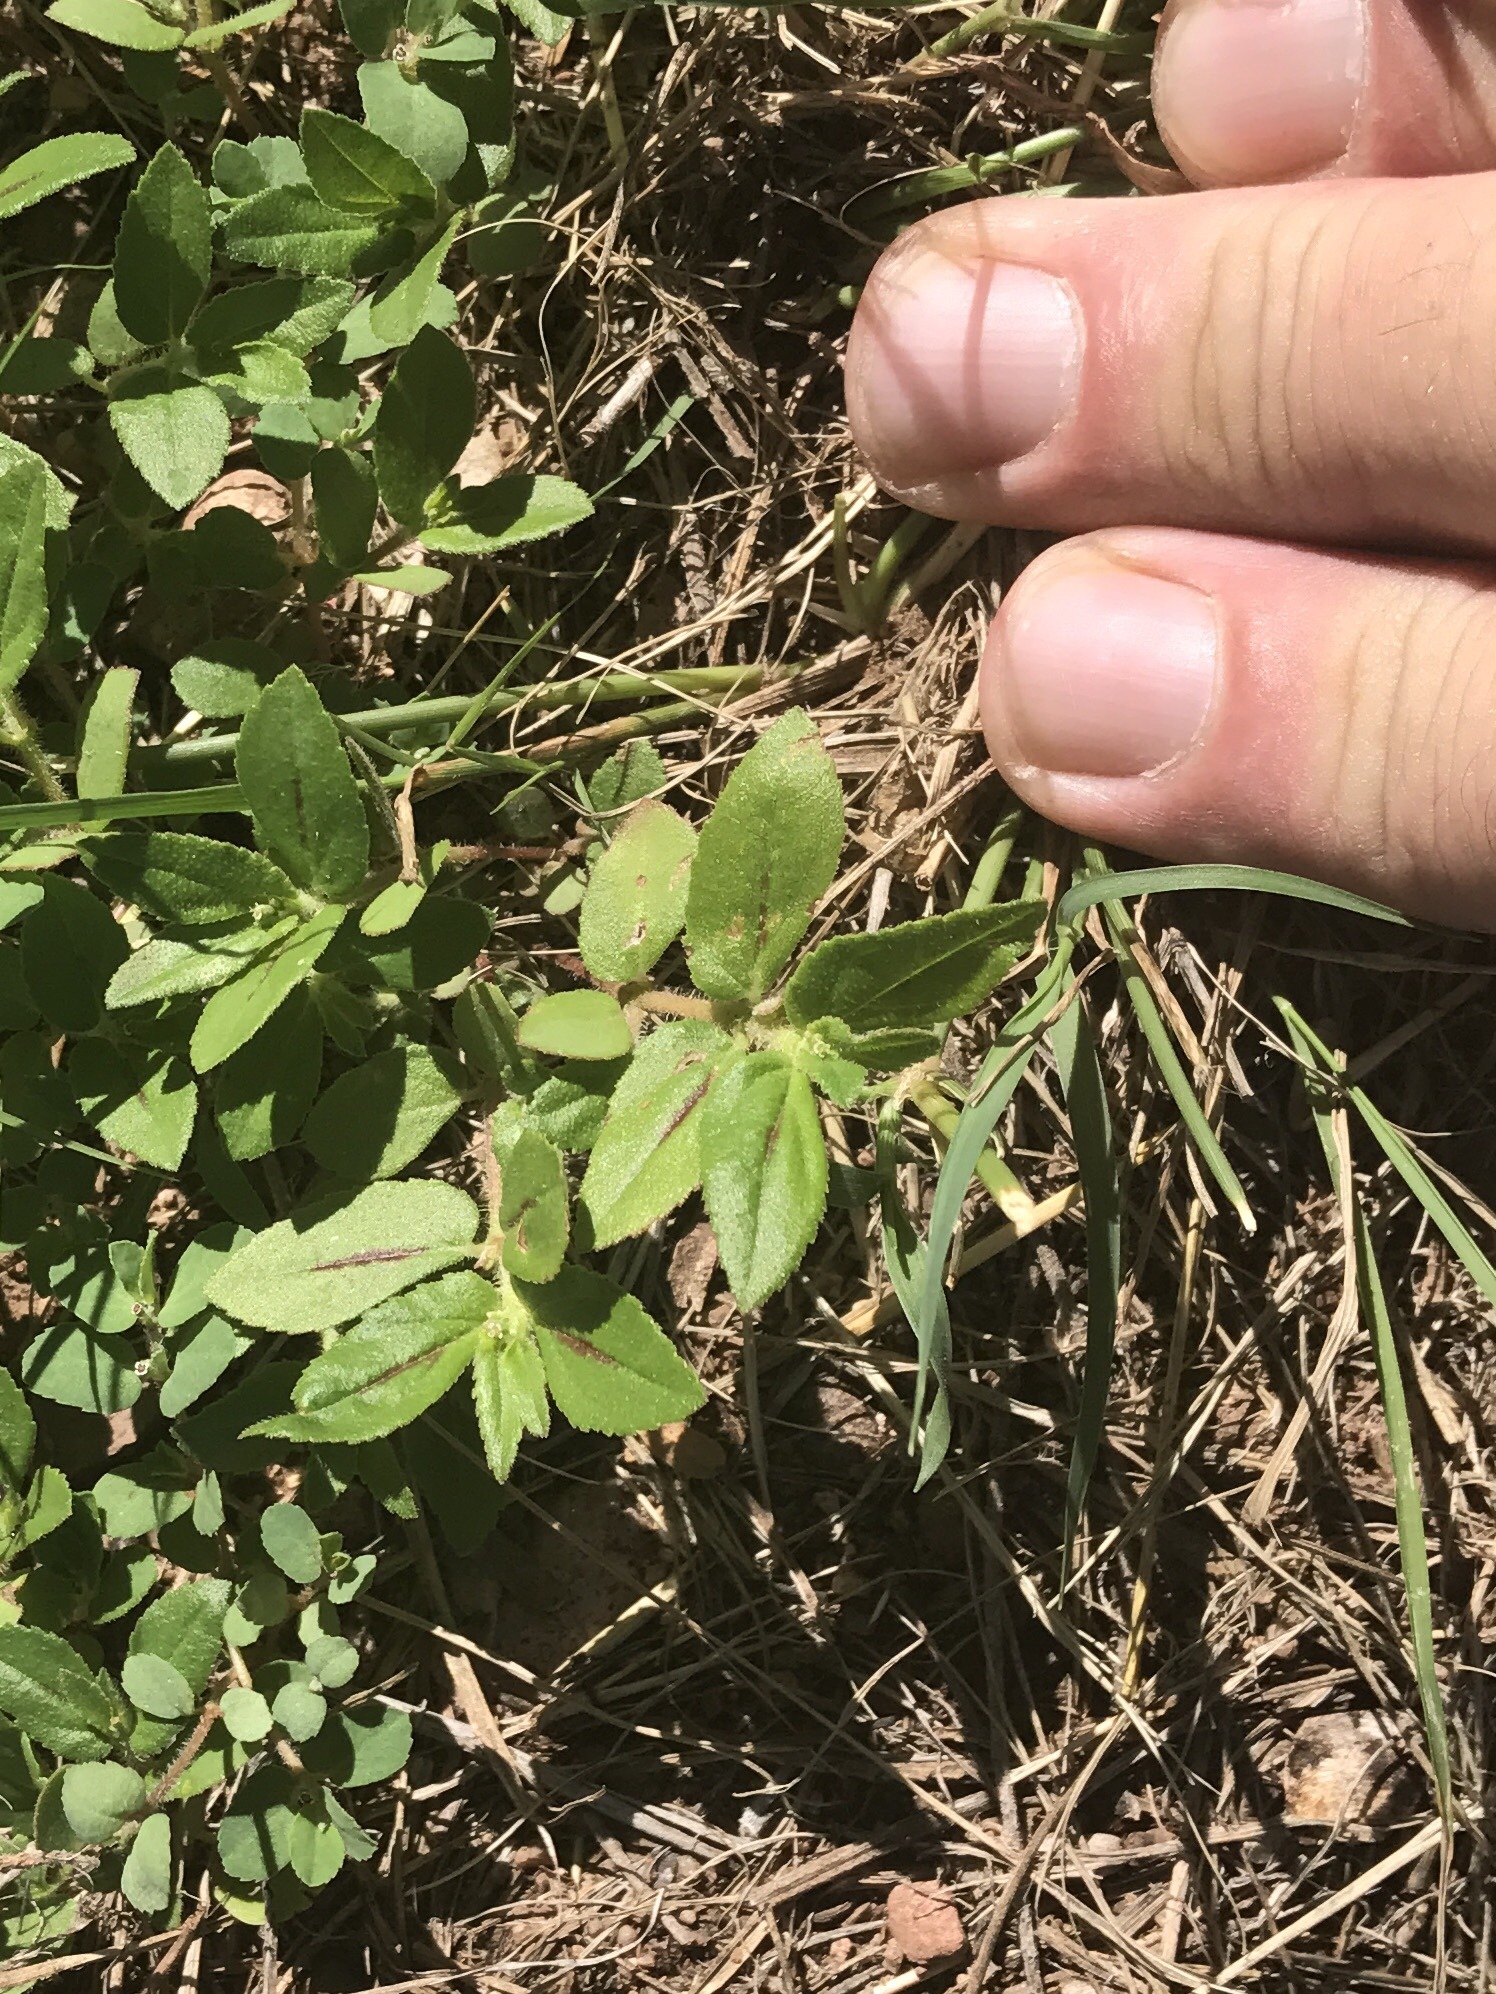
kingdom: Plantae
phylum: Tracheophyta
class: Magnoliopsida
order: Malpighiales
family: Euphorbiaceae
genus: Euphorbia
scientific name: Euphorbia hirta
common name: Pillpod sandmat
